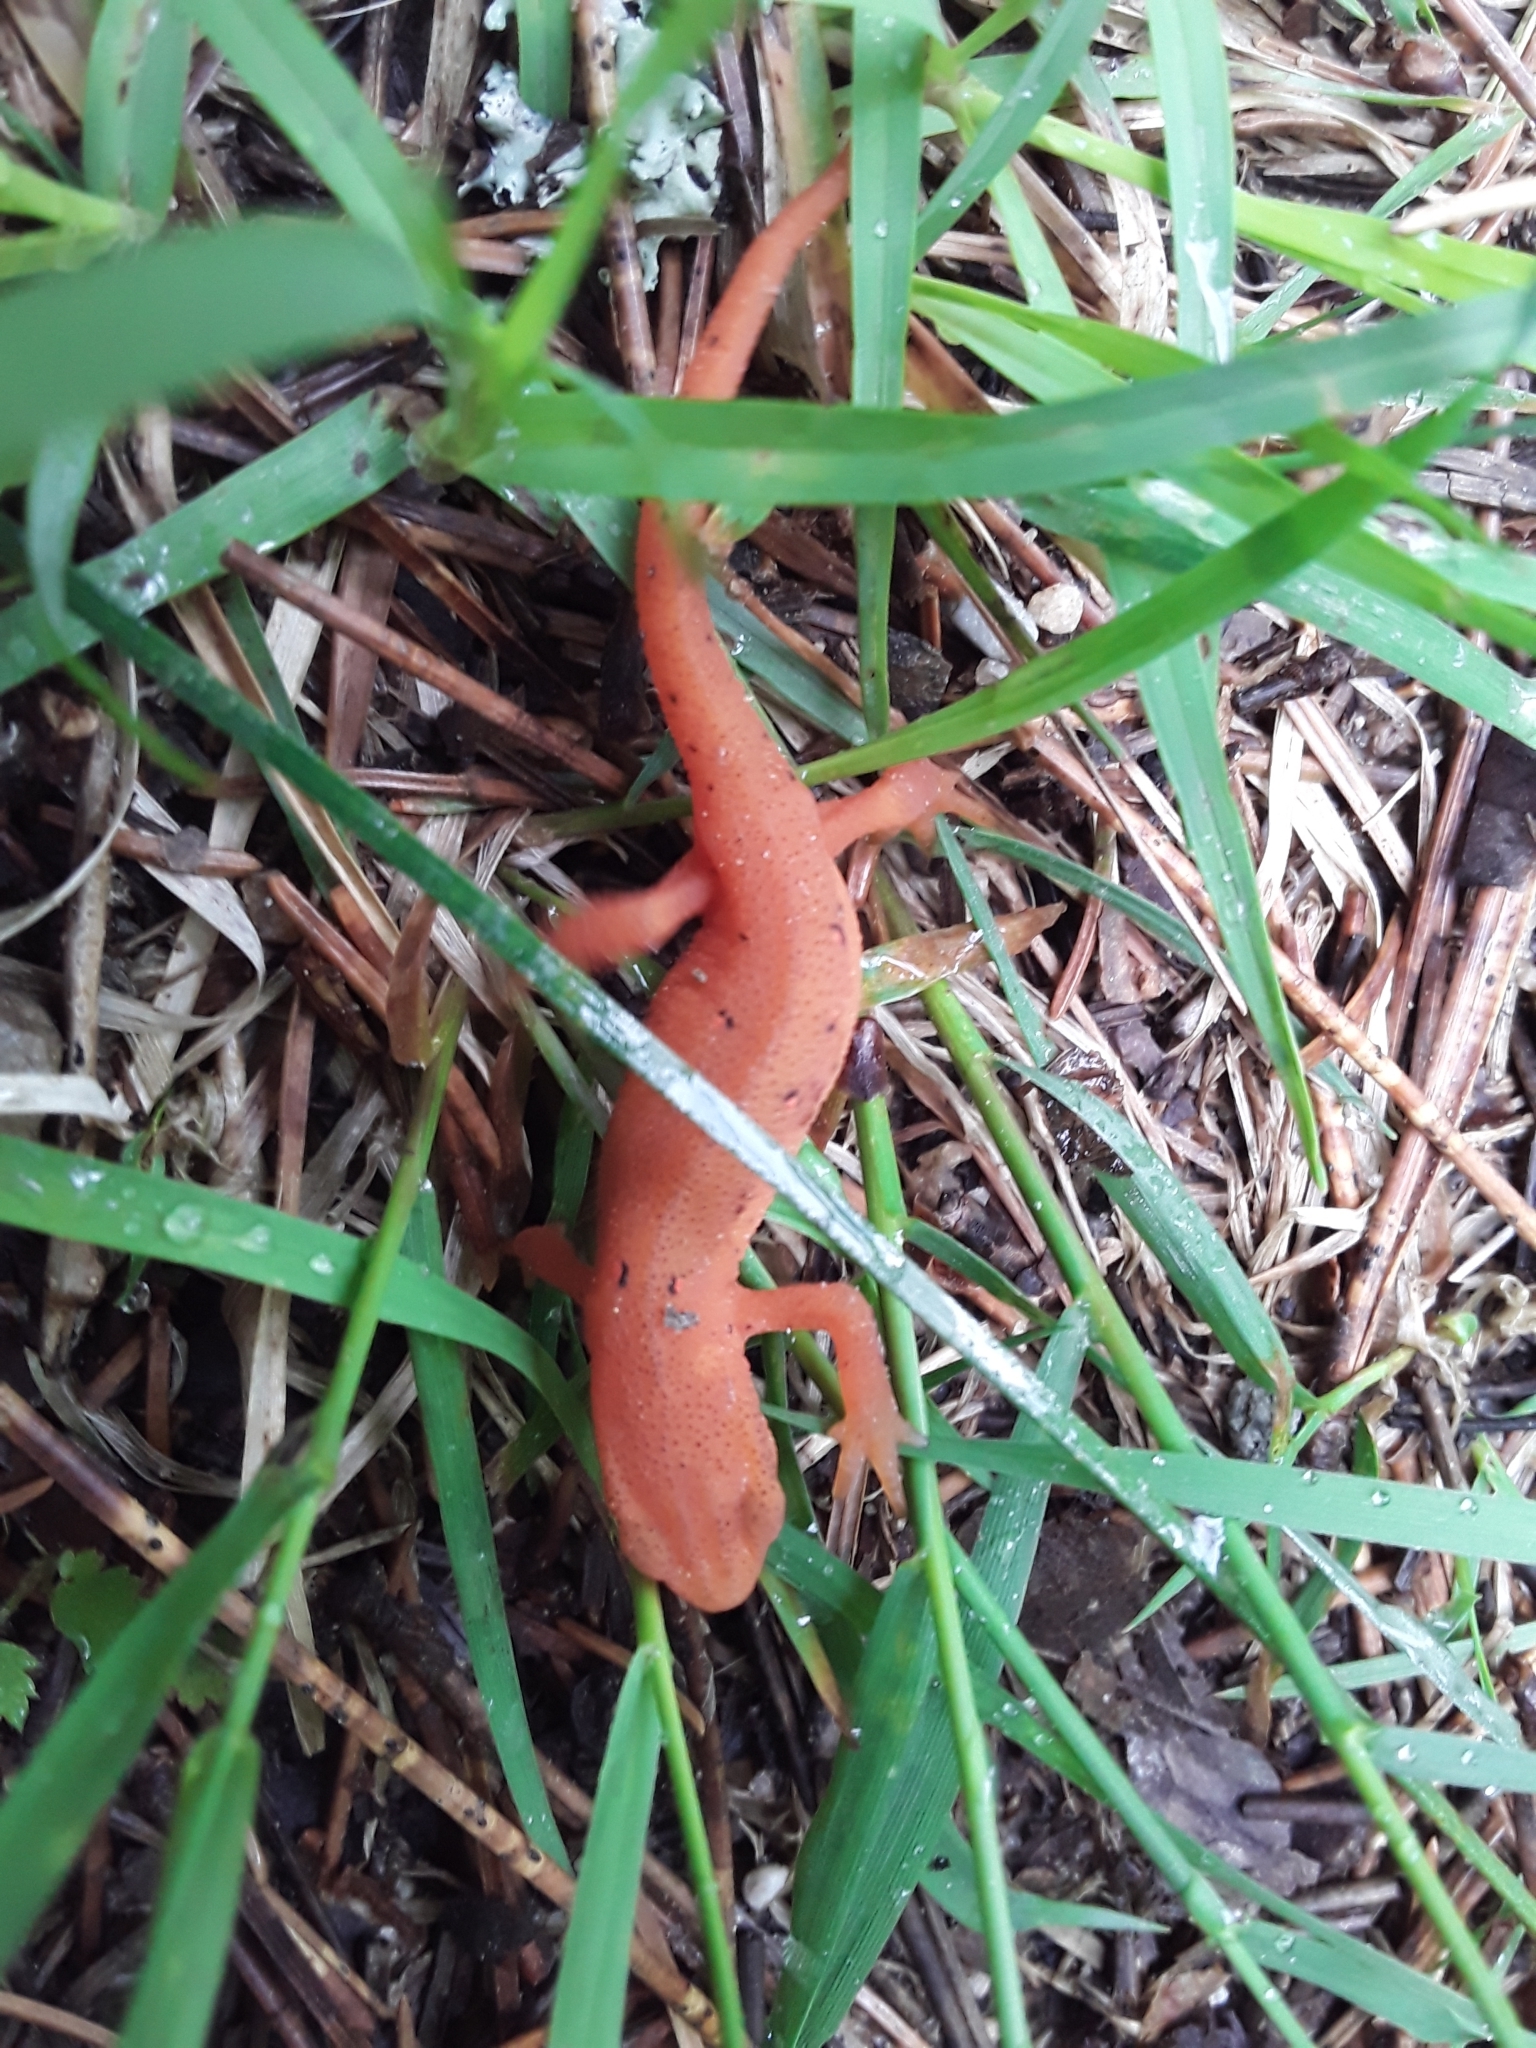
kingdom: Animalia
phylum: Chordata
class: Amphibia
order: Caudata
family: Salamandridae
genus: Notophthalmus
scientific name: Notophthalmus viridescens
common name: Eastern newt
